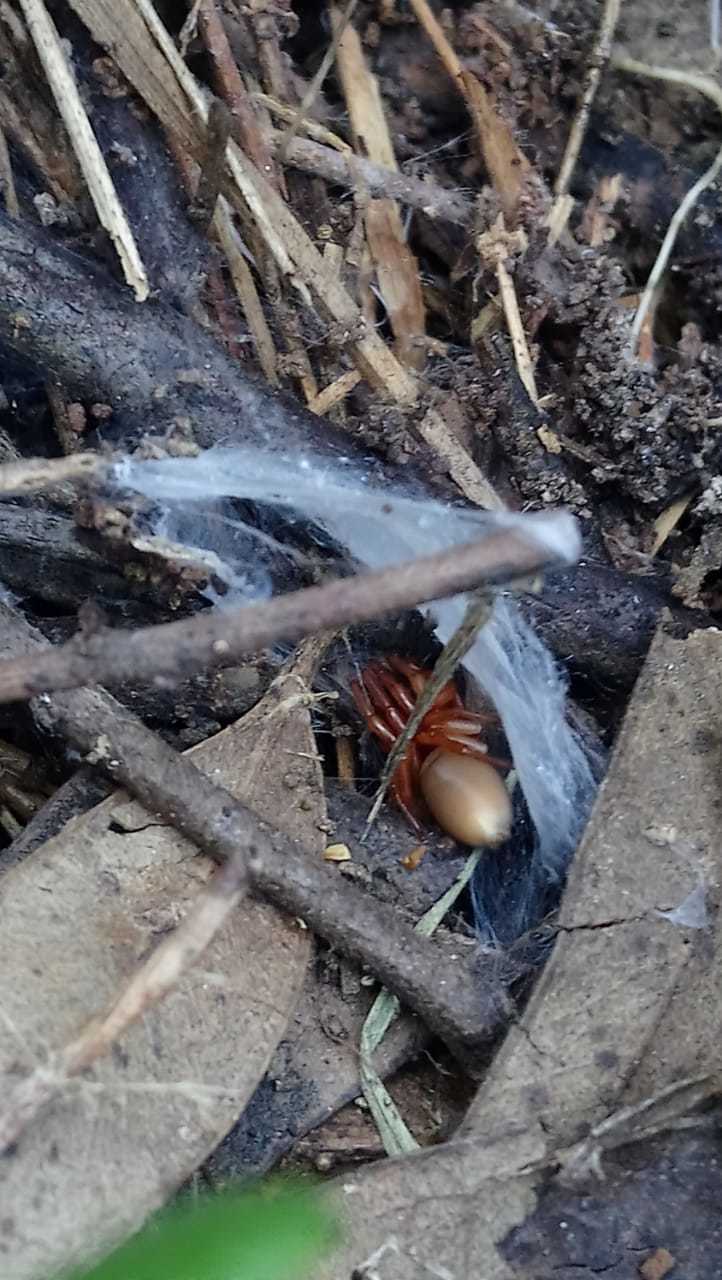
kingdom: Animalia
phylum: Arthropoda
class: Arachnida
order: Araneae
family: Dysderidae
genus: Dysdera
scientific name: Dysdera crocata
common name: Woodlouse spider
